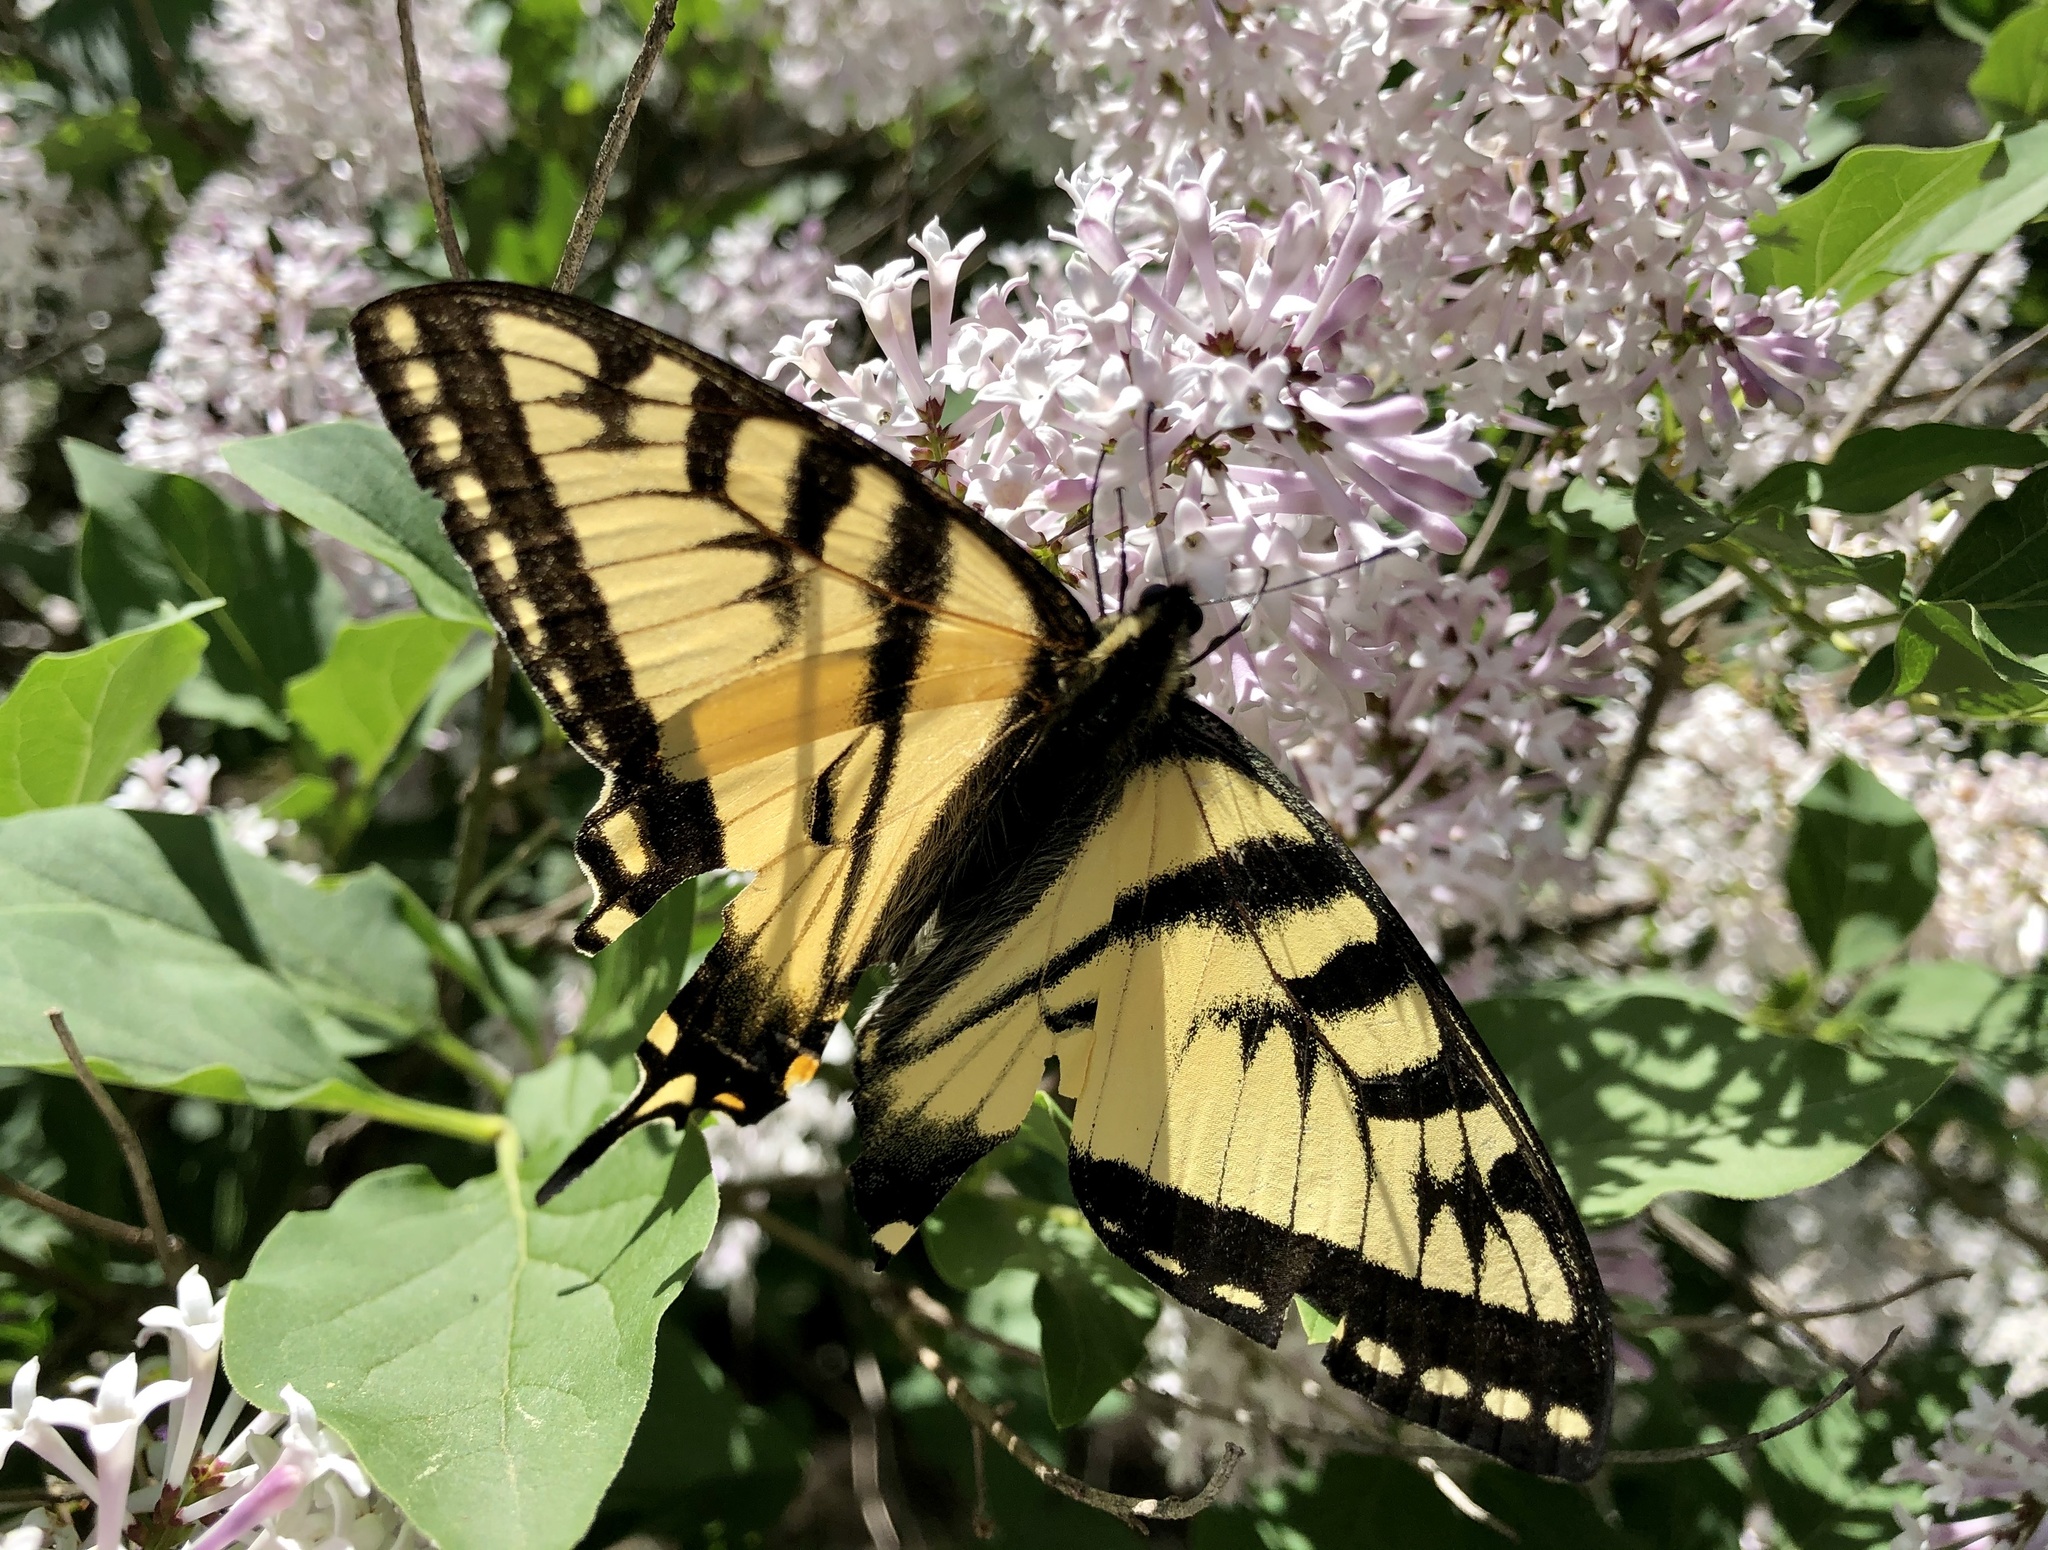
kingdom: Animalia
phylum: Arthropoda
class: Insecta
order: Lepidoptera
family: Papilionidae
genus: Papilio
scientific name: Papilio canadensis
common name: Canadian tiger swallowtail
